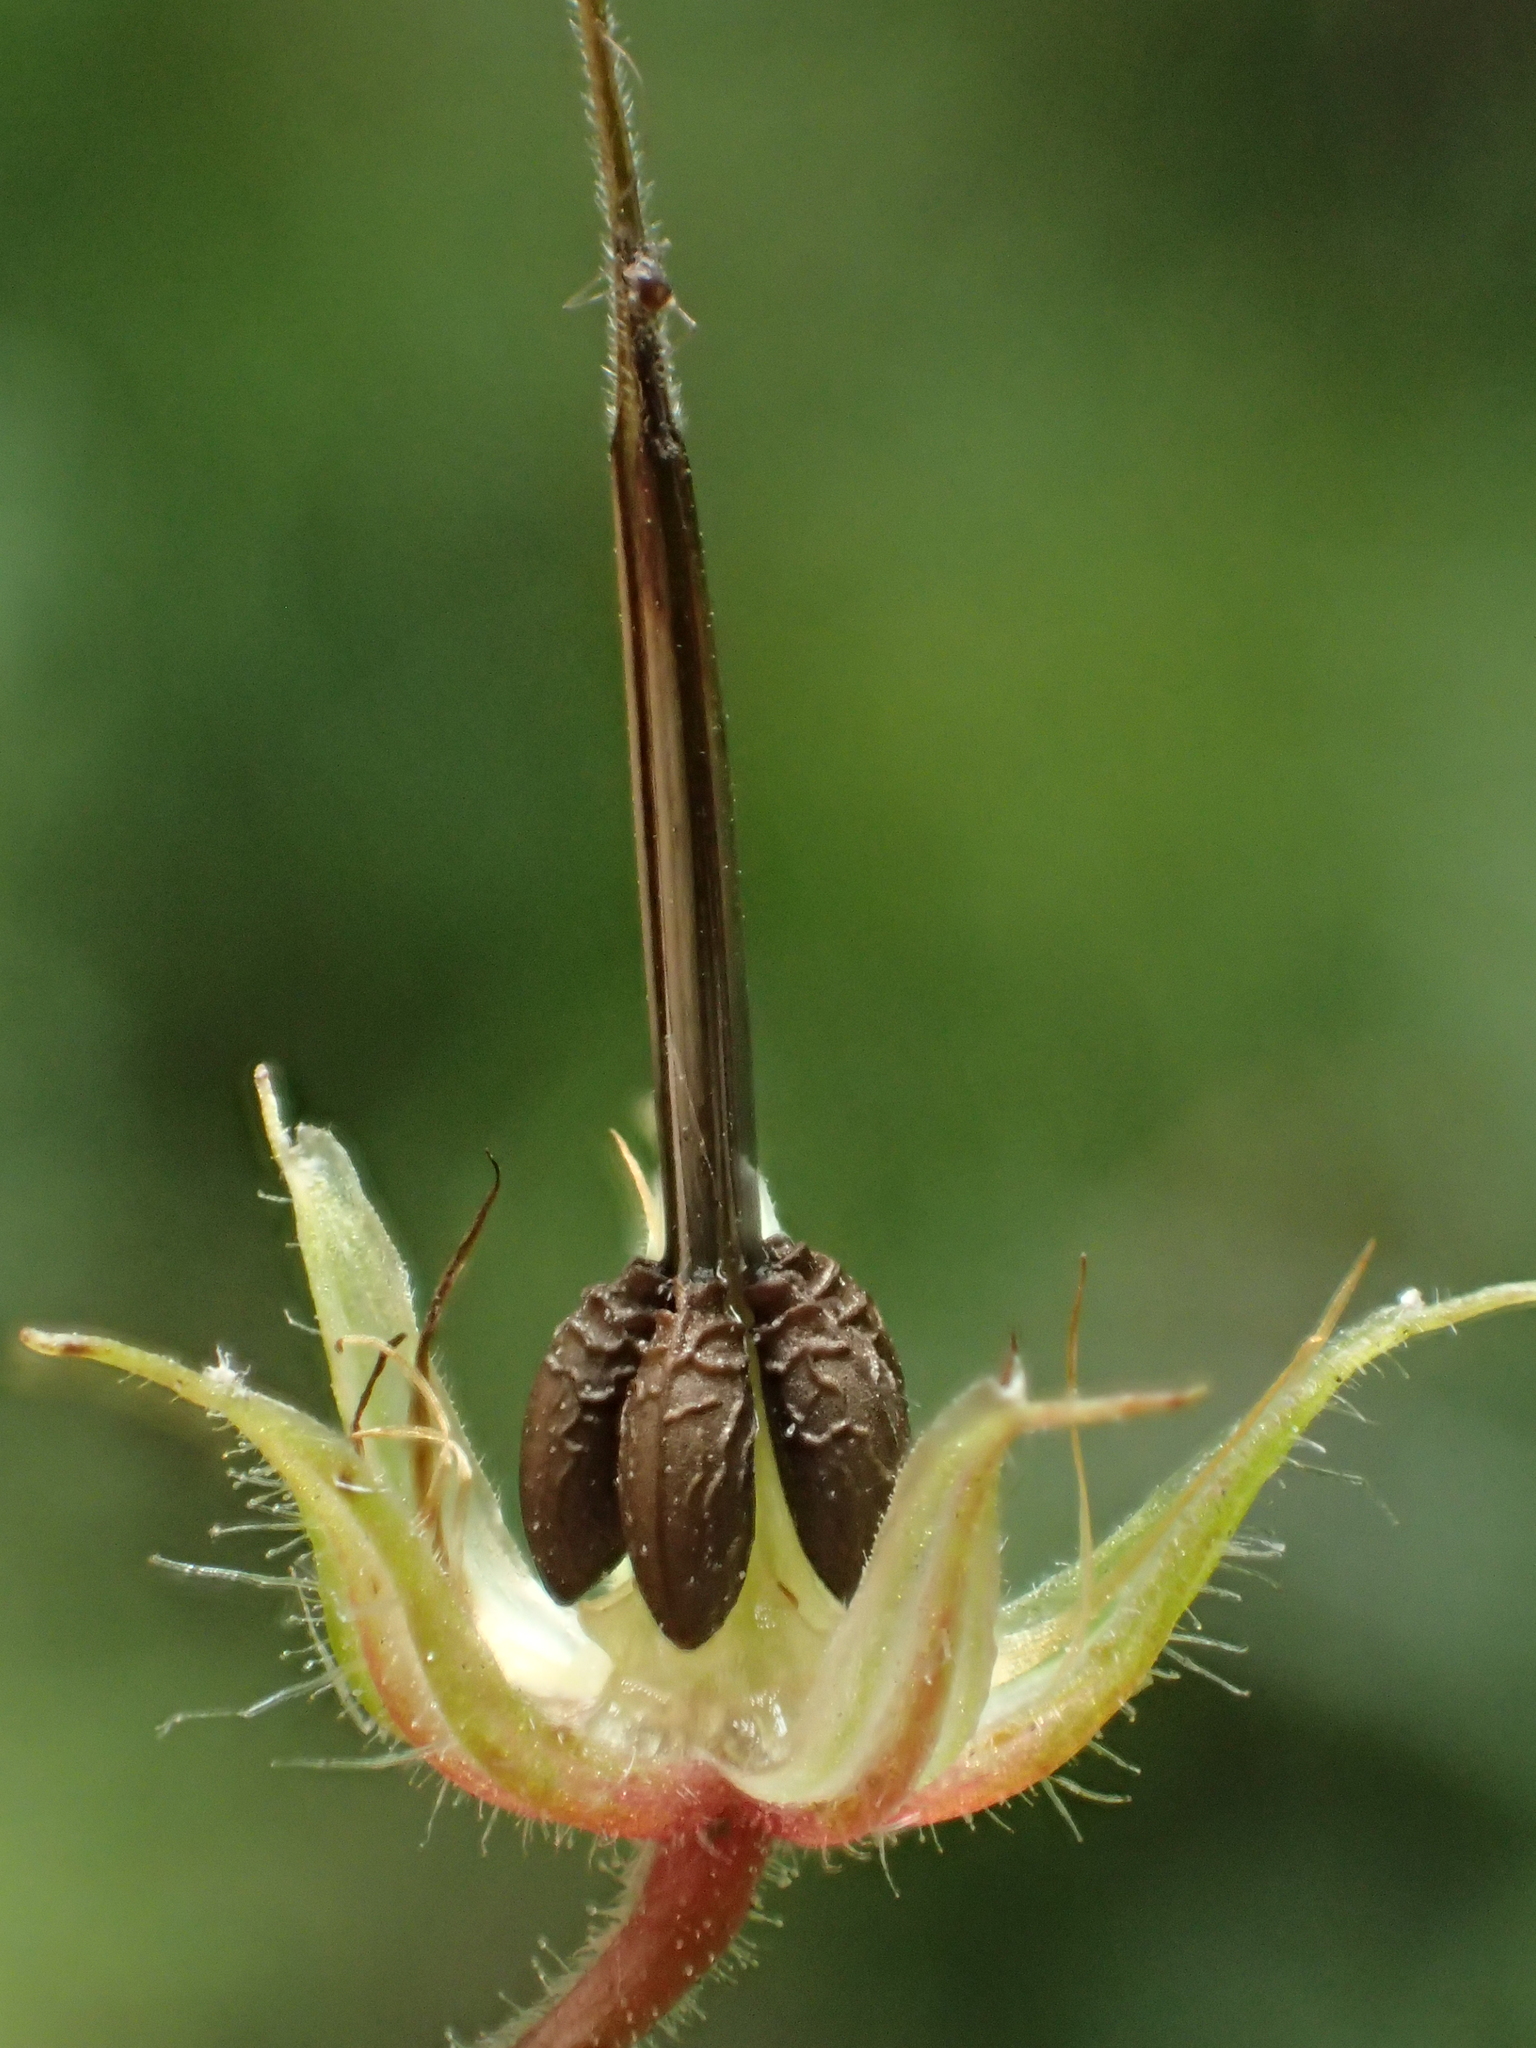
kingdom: Plantae
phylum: Tracheophyta
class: Magnoliopsida
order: Geraniales
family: Geraniaceae
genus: Geranium
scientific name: Geranium robertianum
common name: Herb-robert
